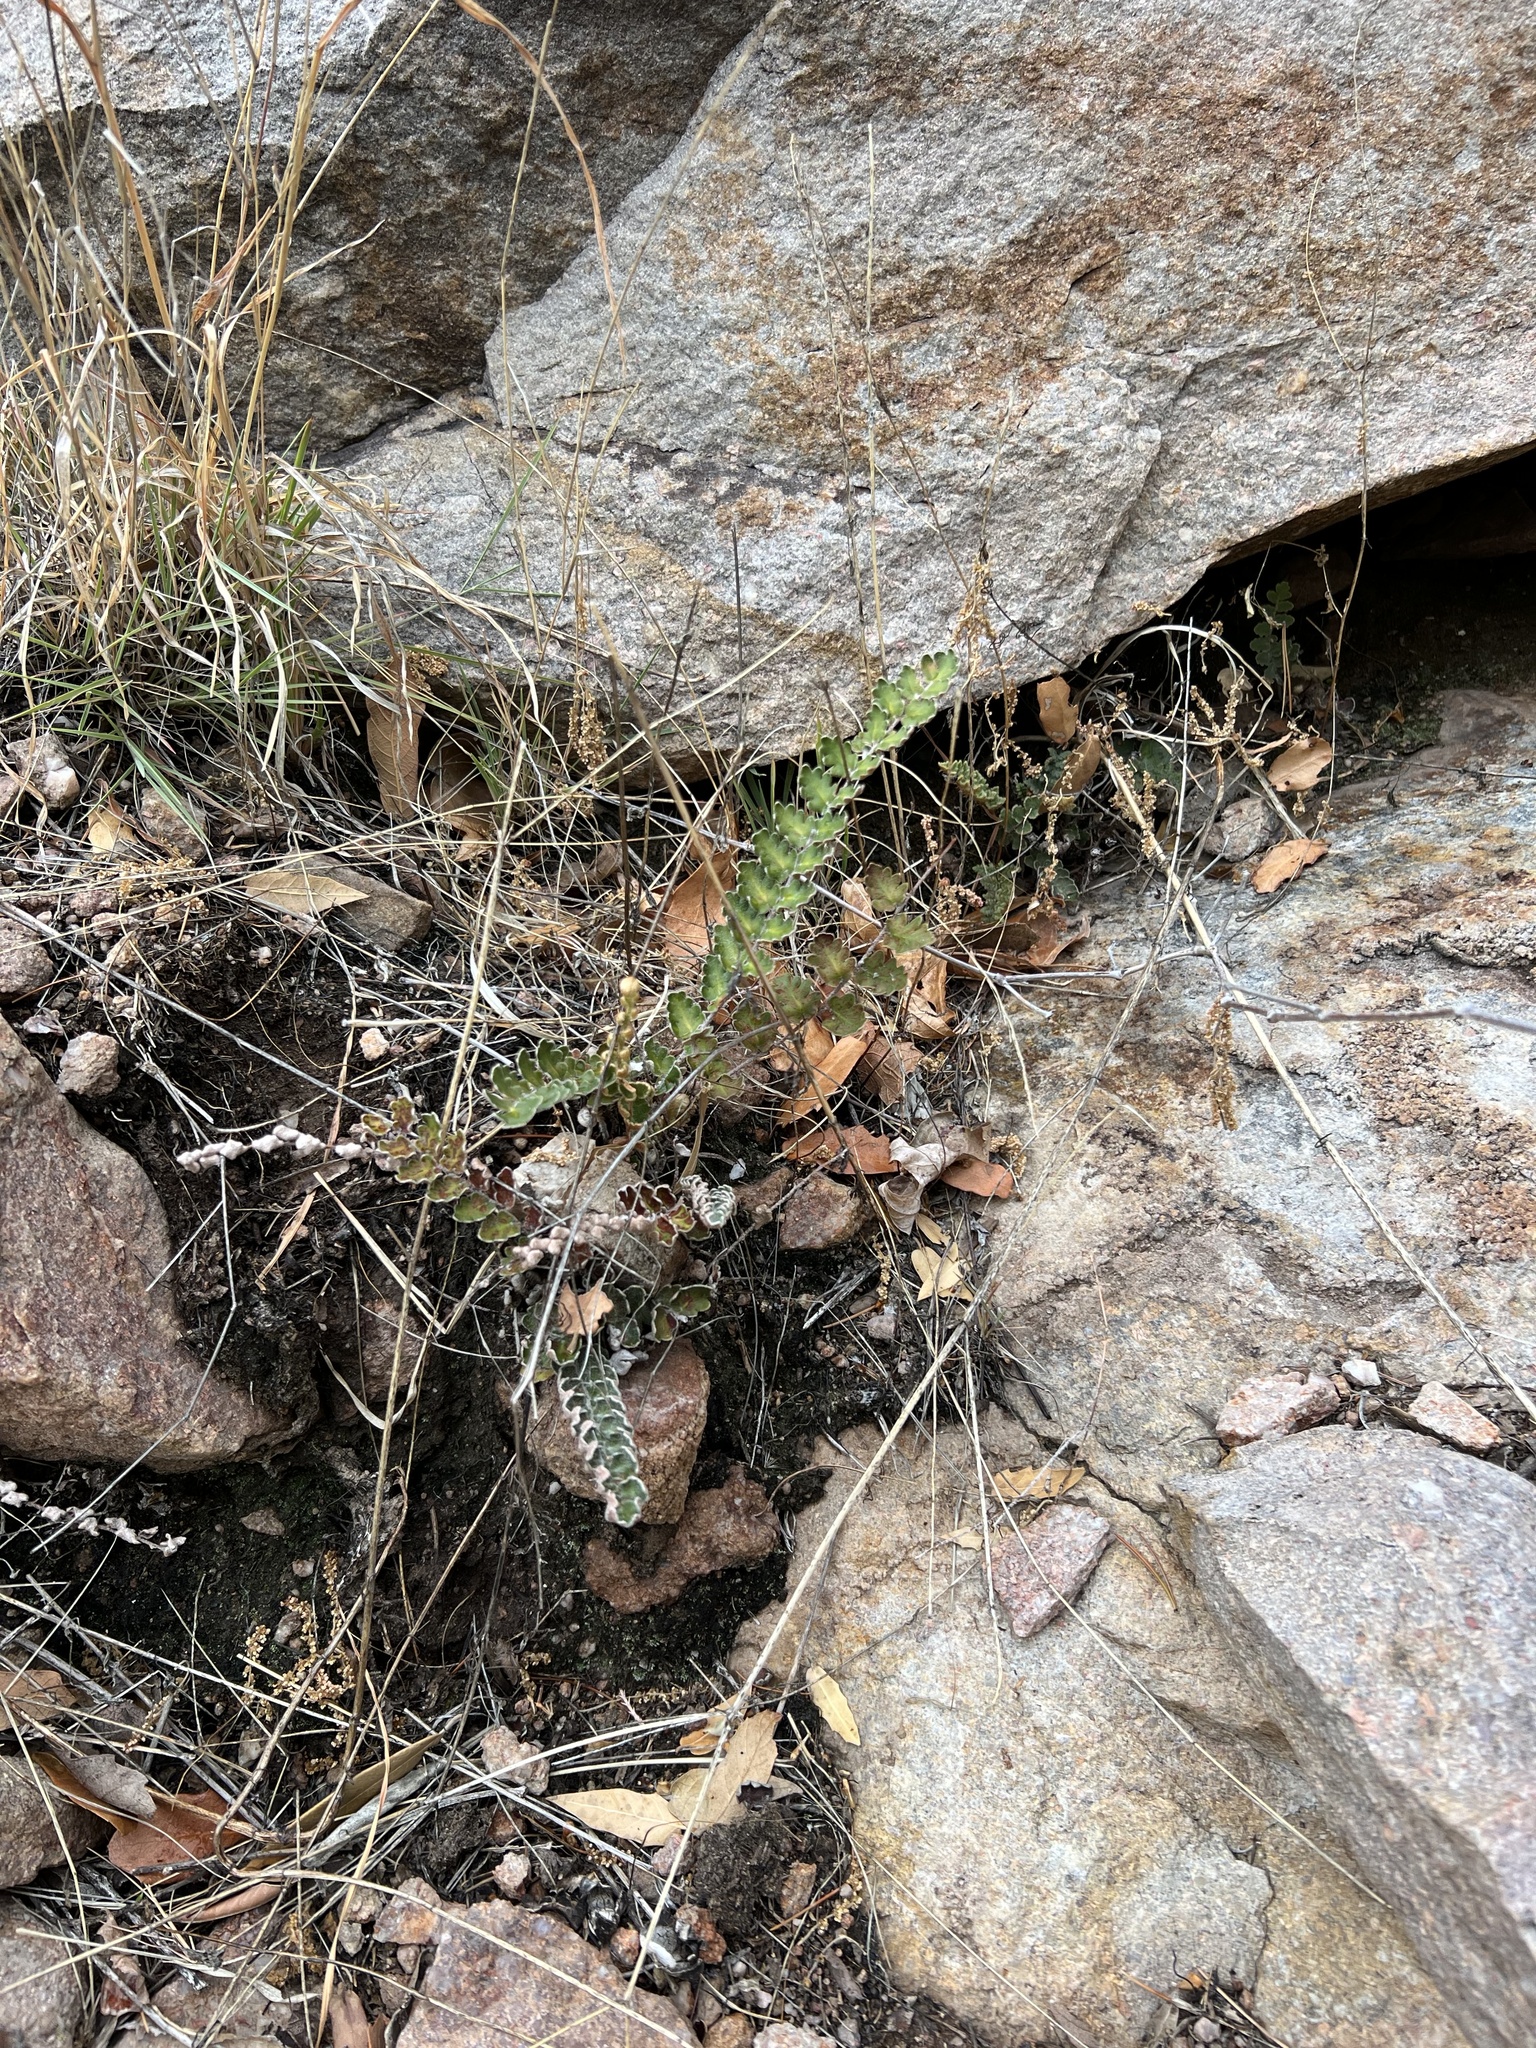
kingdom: Plantae
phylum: Tracheophyta
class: Polypodiopsida
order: Polypodiales
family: Pteridaceae
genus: Astrolepis
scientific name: Astrolepis sinuata
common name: Wavy scaly cloakfern
